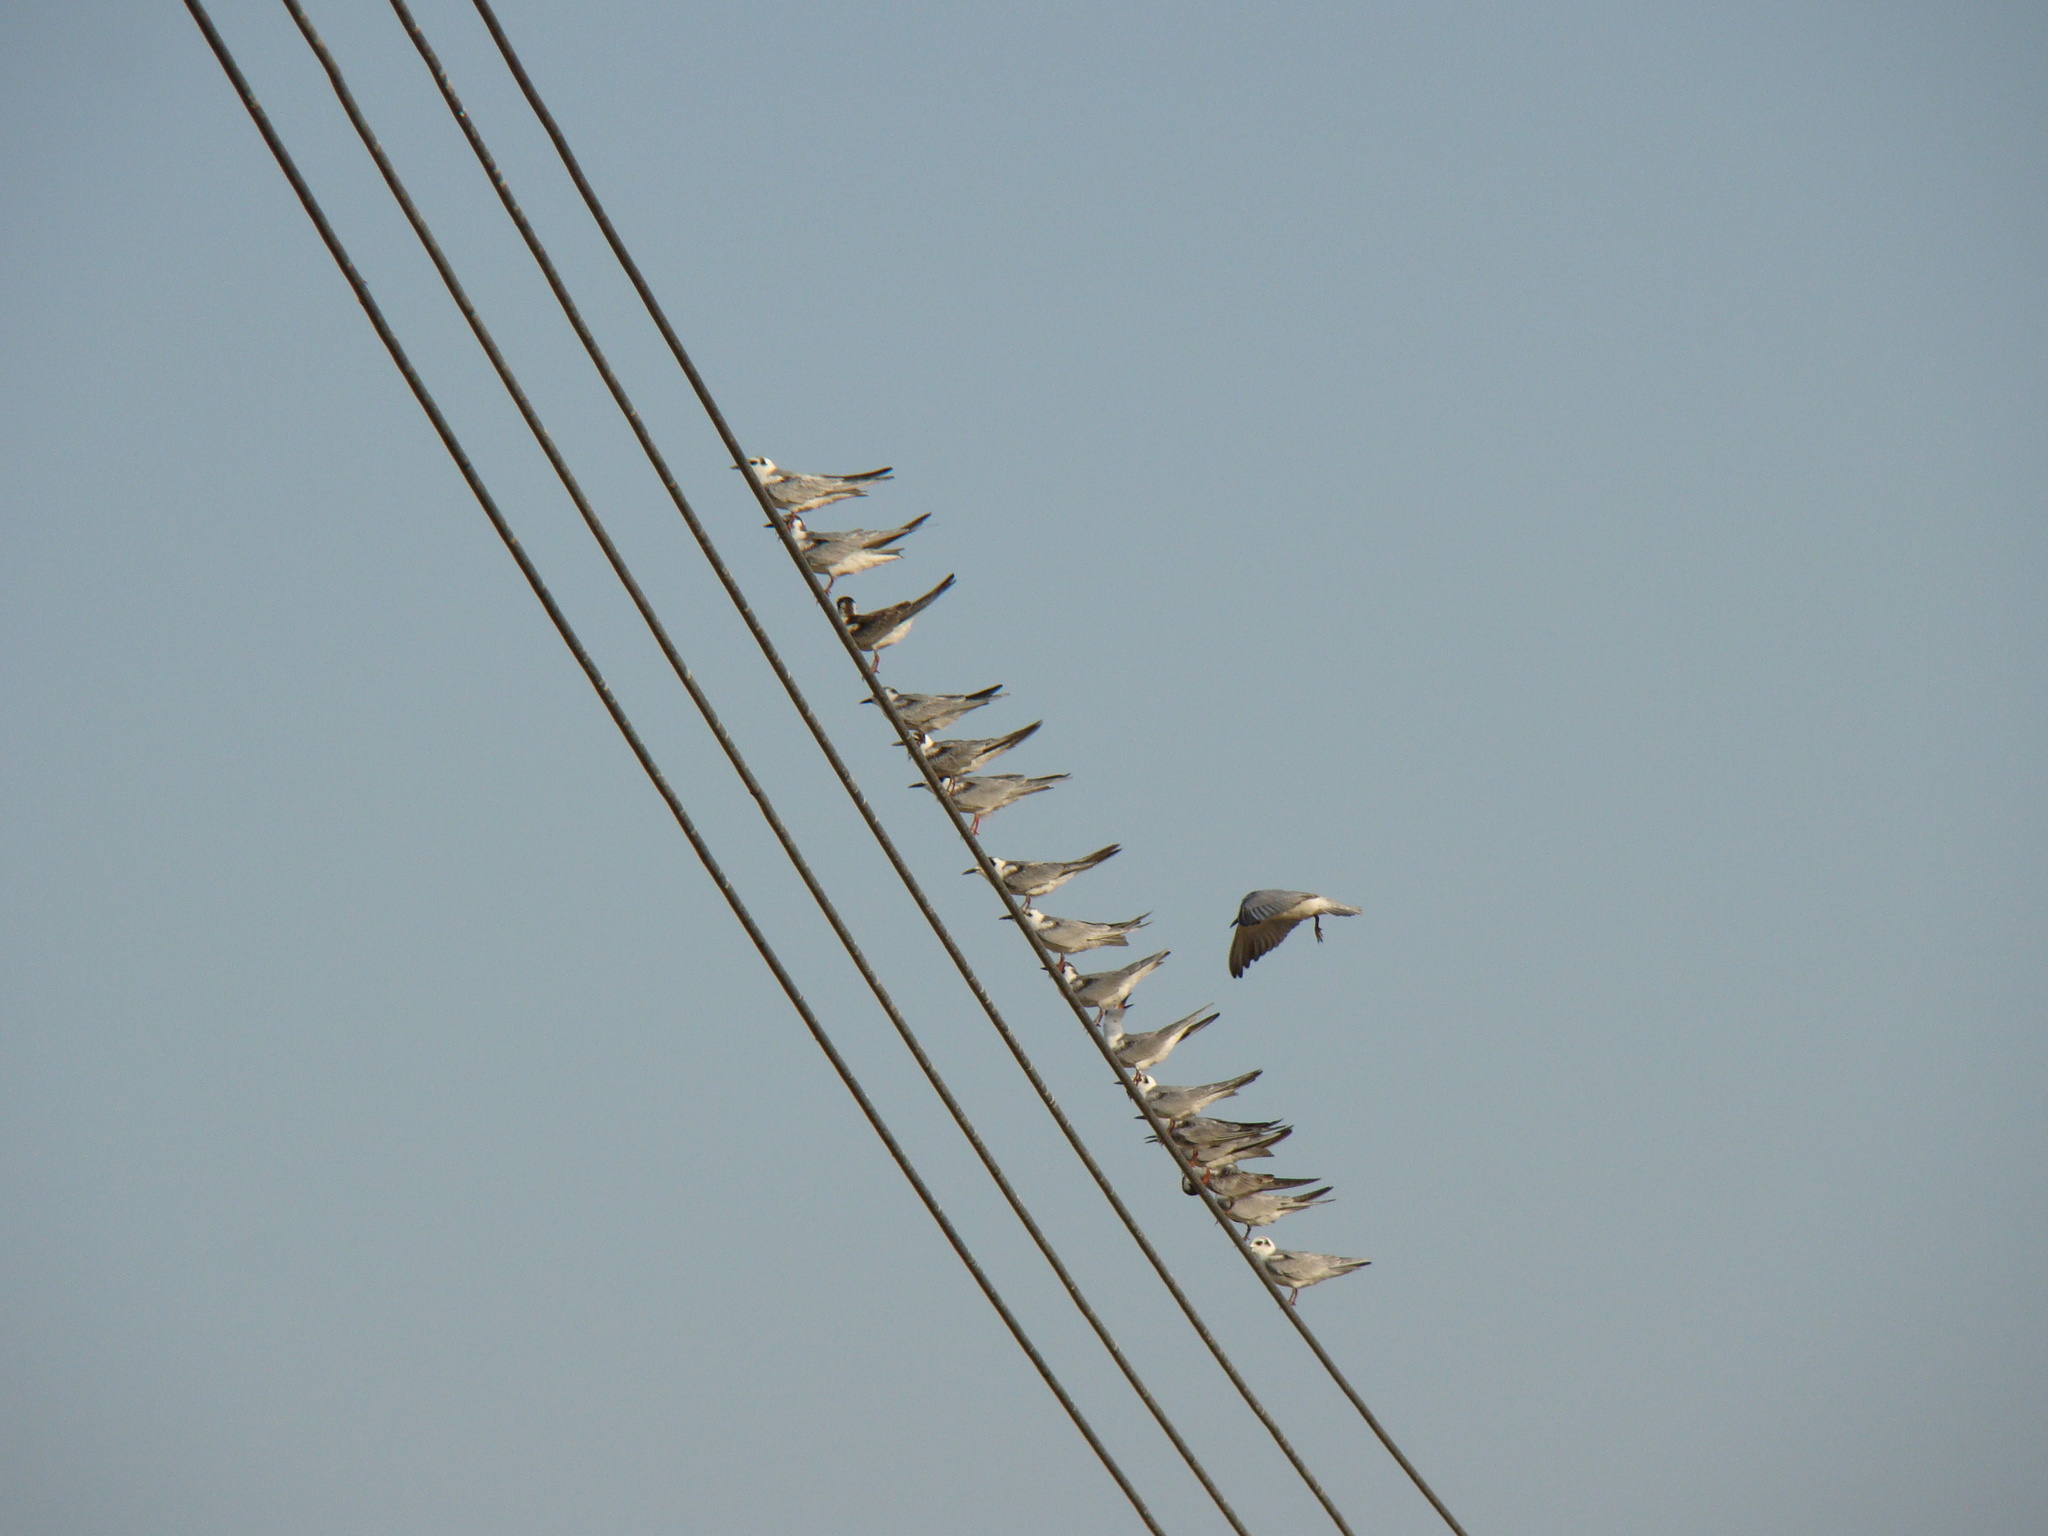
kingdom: Animalia
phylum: Chordata
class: Aves
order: Charadriiformes
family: Laridae
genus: Chlidonias
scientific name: Chlidonias leucopterus
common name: White-winged tern
